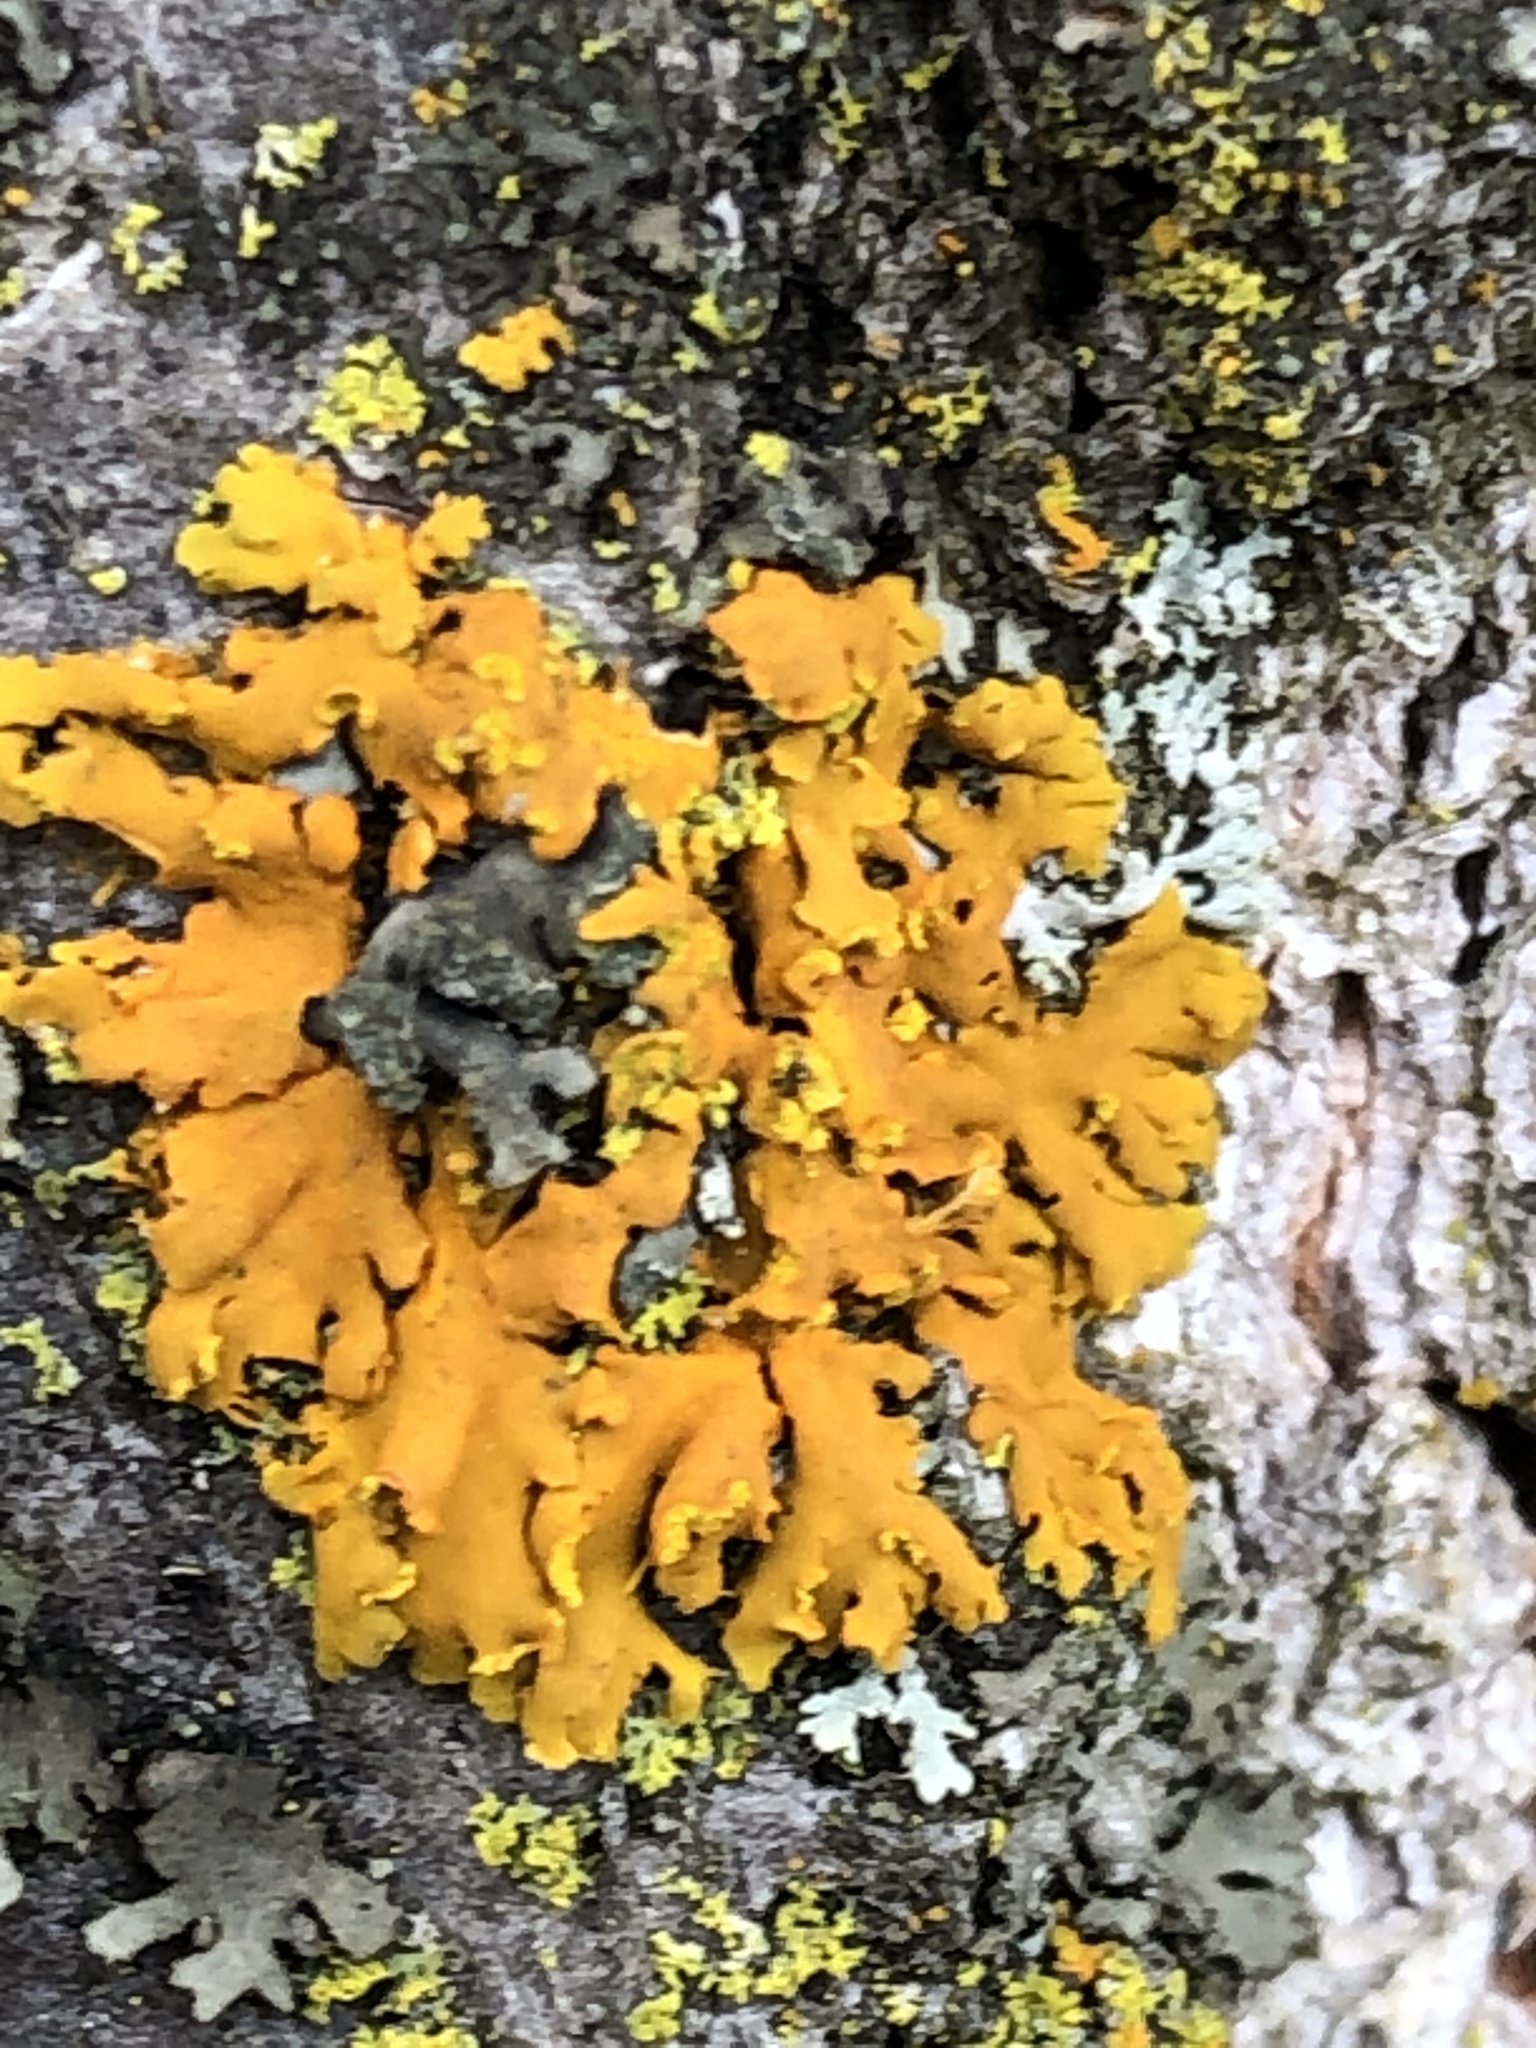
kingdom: Fungi
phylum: Ascomycota
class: Lecanoromycetes
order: Teloschistales
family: Teloschistaceae
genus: Oxneria
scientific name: Oxneria fallax
